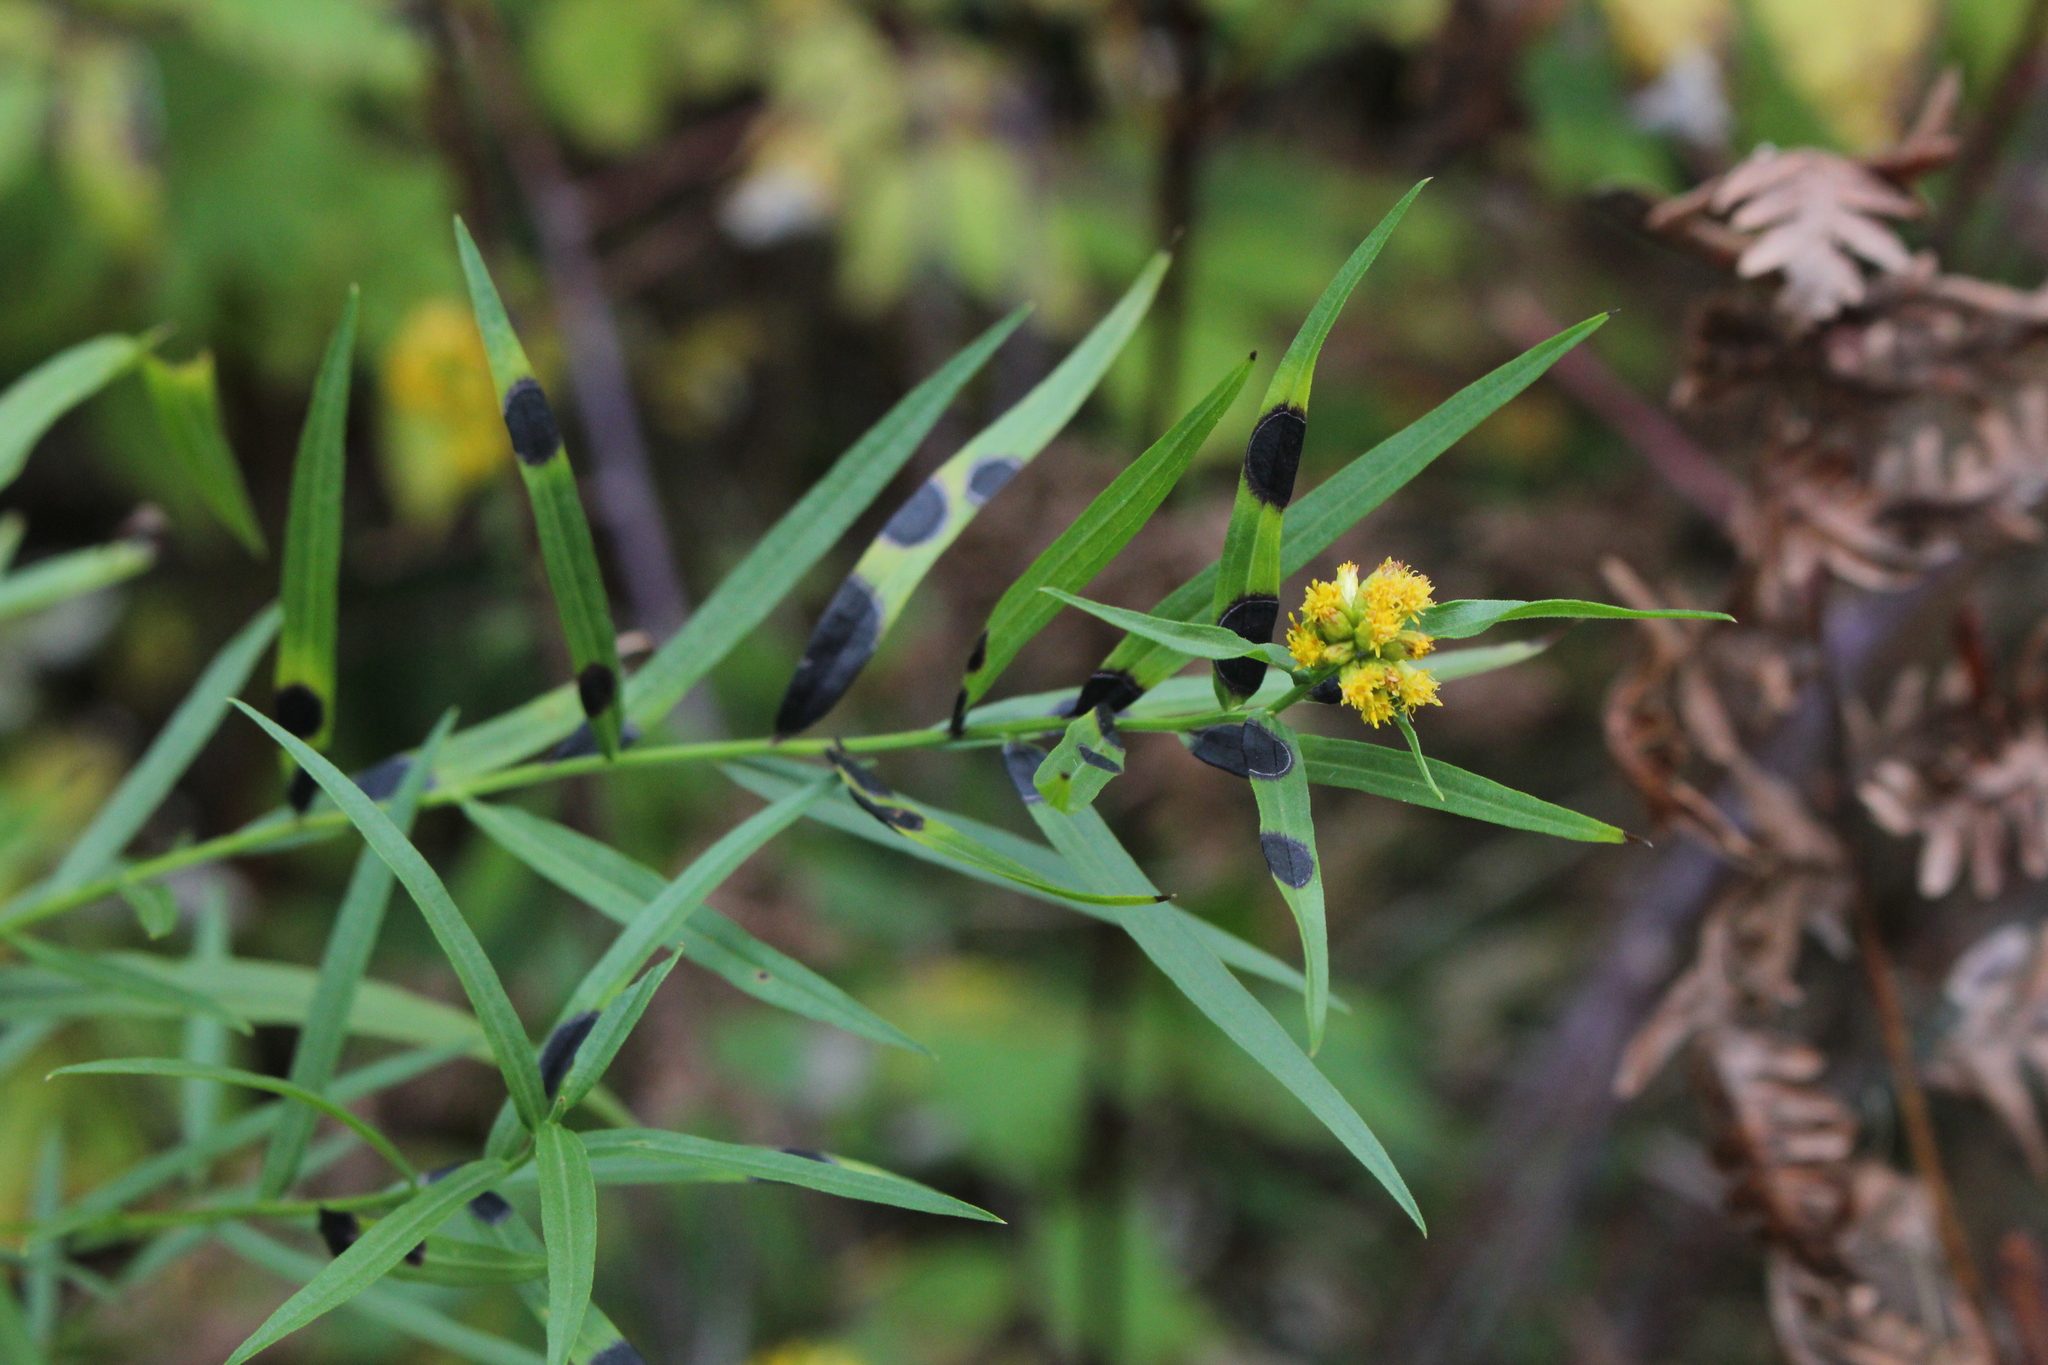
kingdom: Animalia
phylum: Arthropoda
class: Insecta
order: Diptera
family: Cecidomyiidae
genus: Asteromyia
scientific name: Asteromyia euthamiae
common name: Euthamia leaf gall midge
